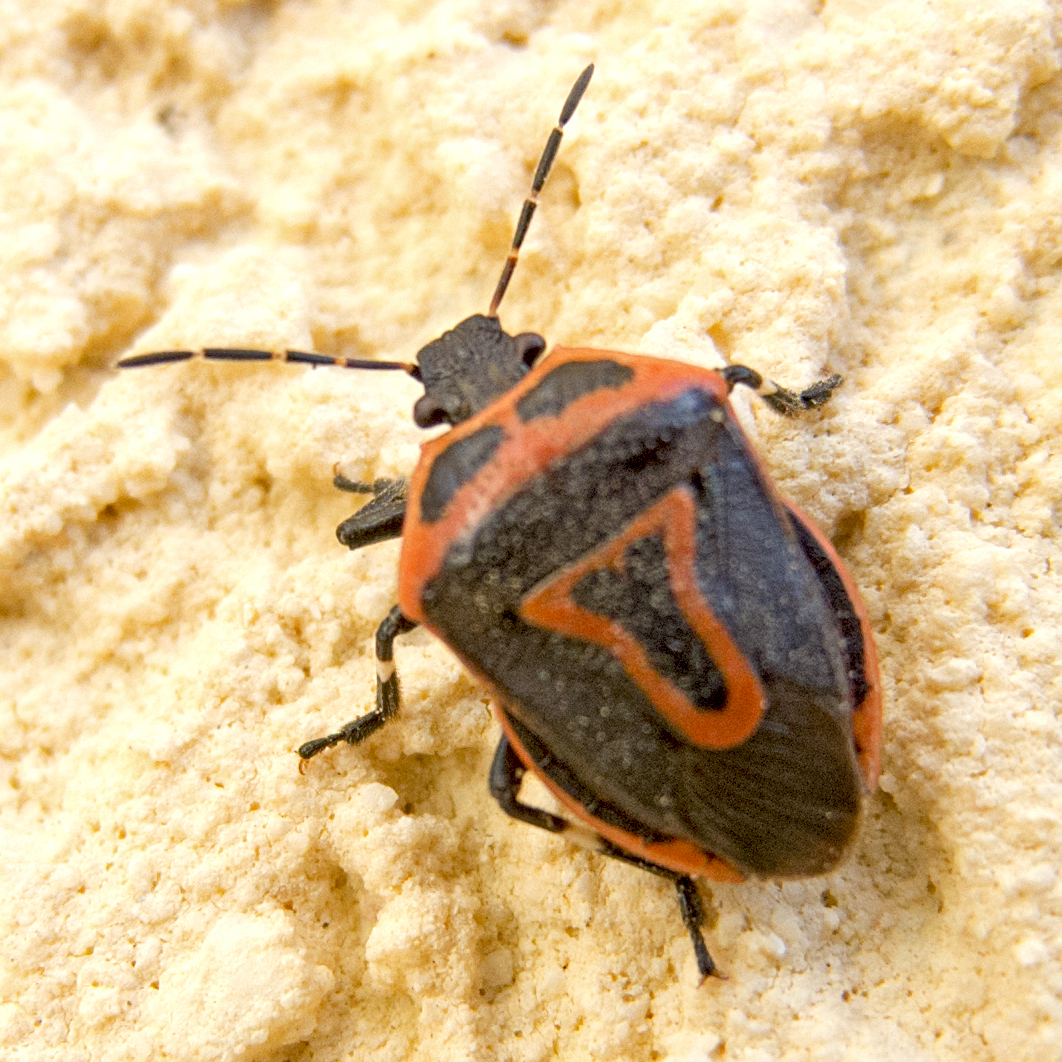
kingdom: Animalia
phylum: Arthropoda
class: Insecta
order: Hemiptera
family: Pentatomidae
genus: Perillus
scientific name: Perillus bioculatus
